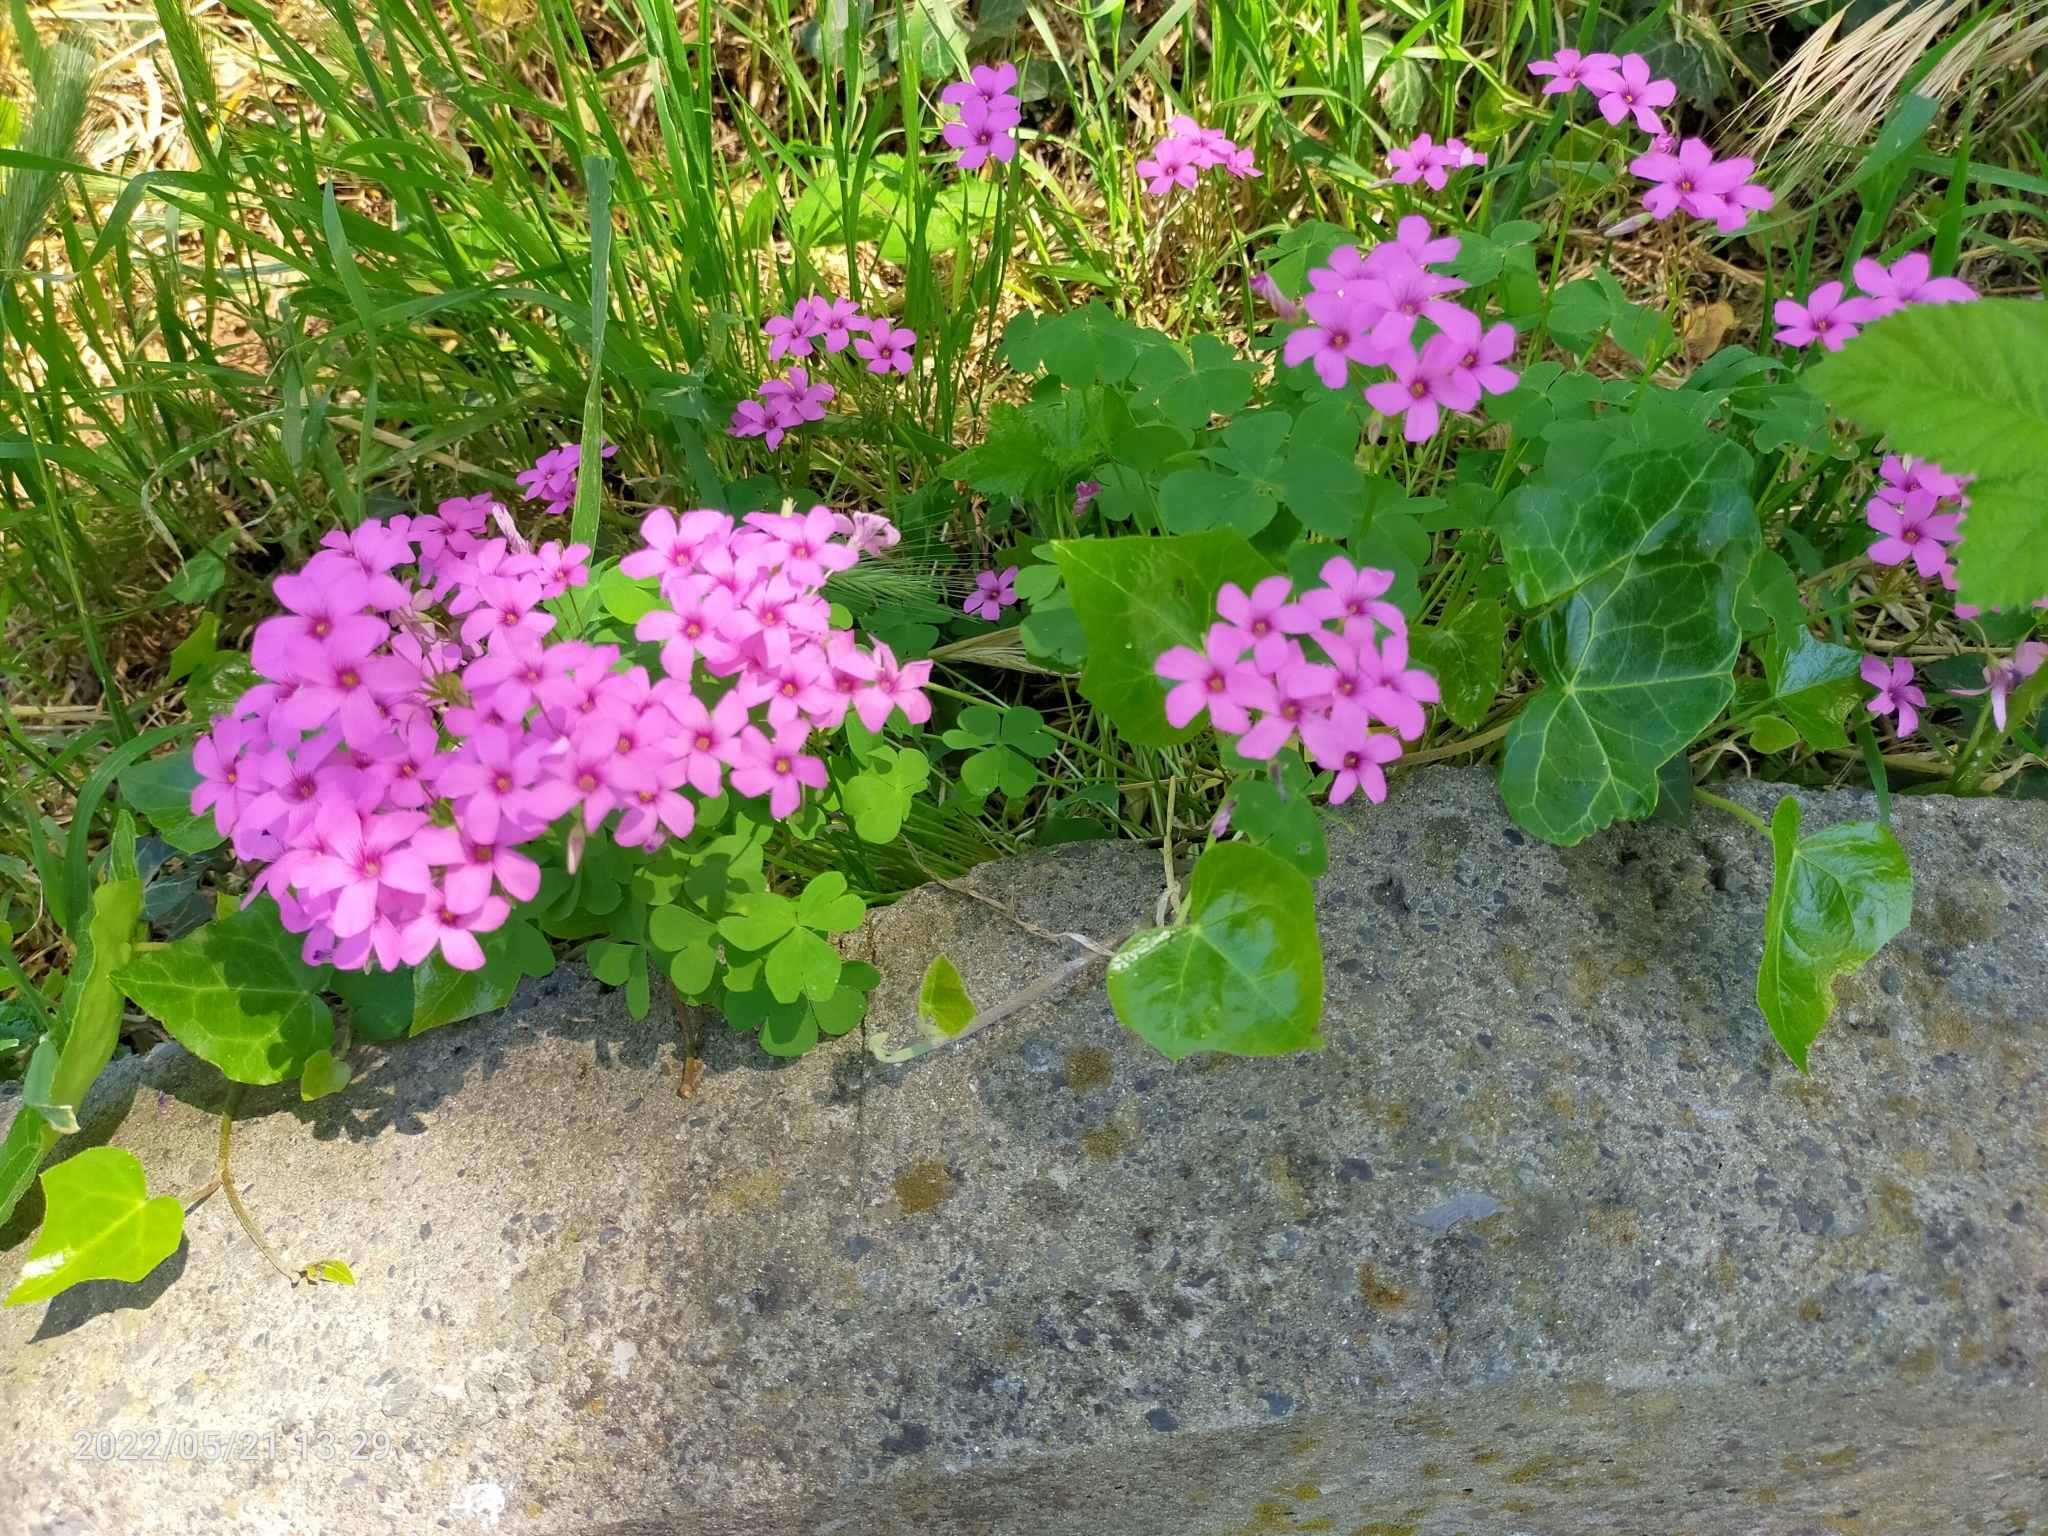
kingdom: Plantae
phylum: Tracheophyta
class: Magnoliopsida
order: Oxalidales
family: Oxalidaceae
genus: Oxalis
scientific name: Oxalis articulata
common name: Pink-sorrel
